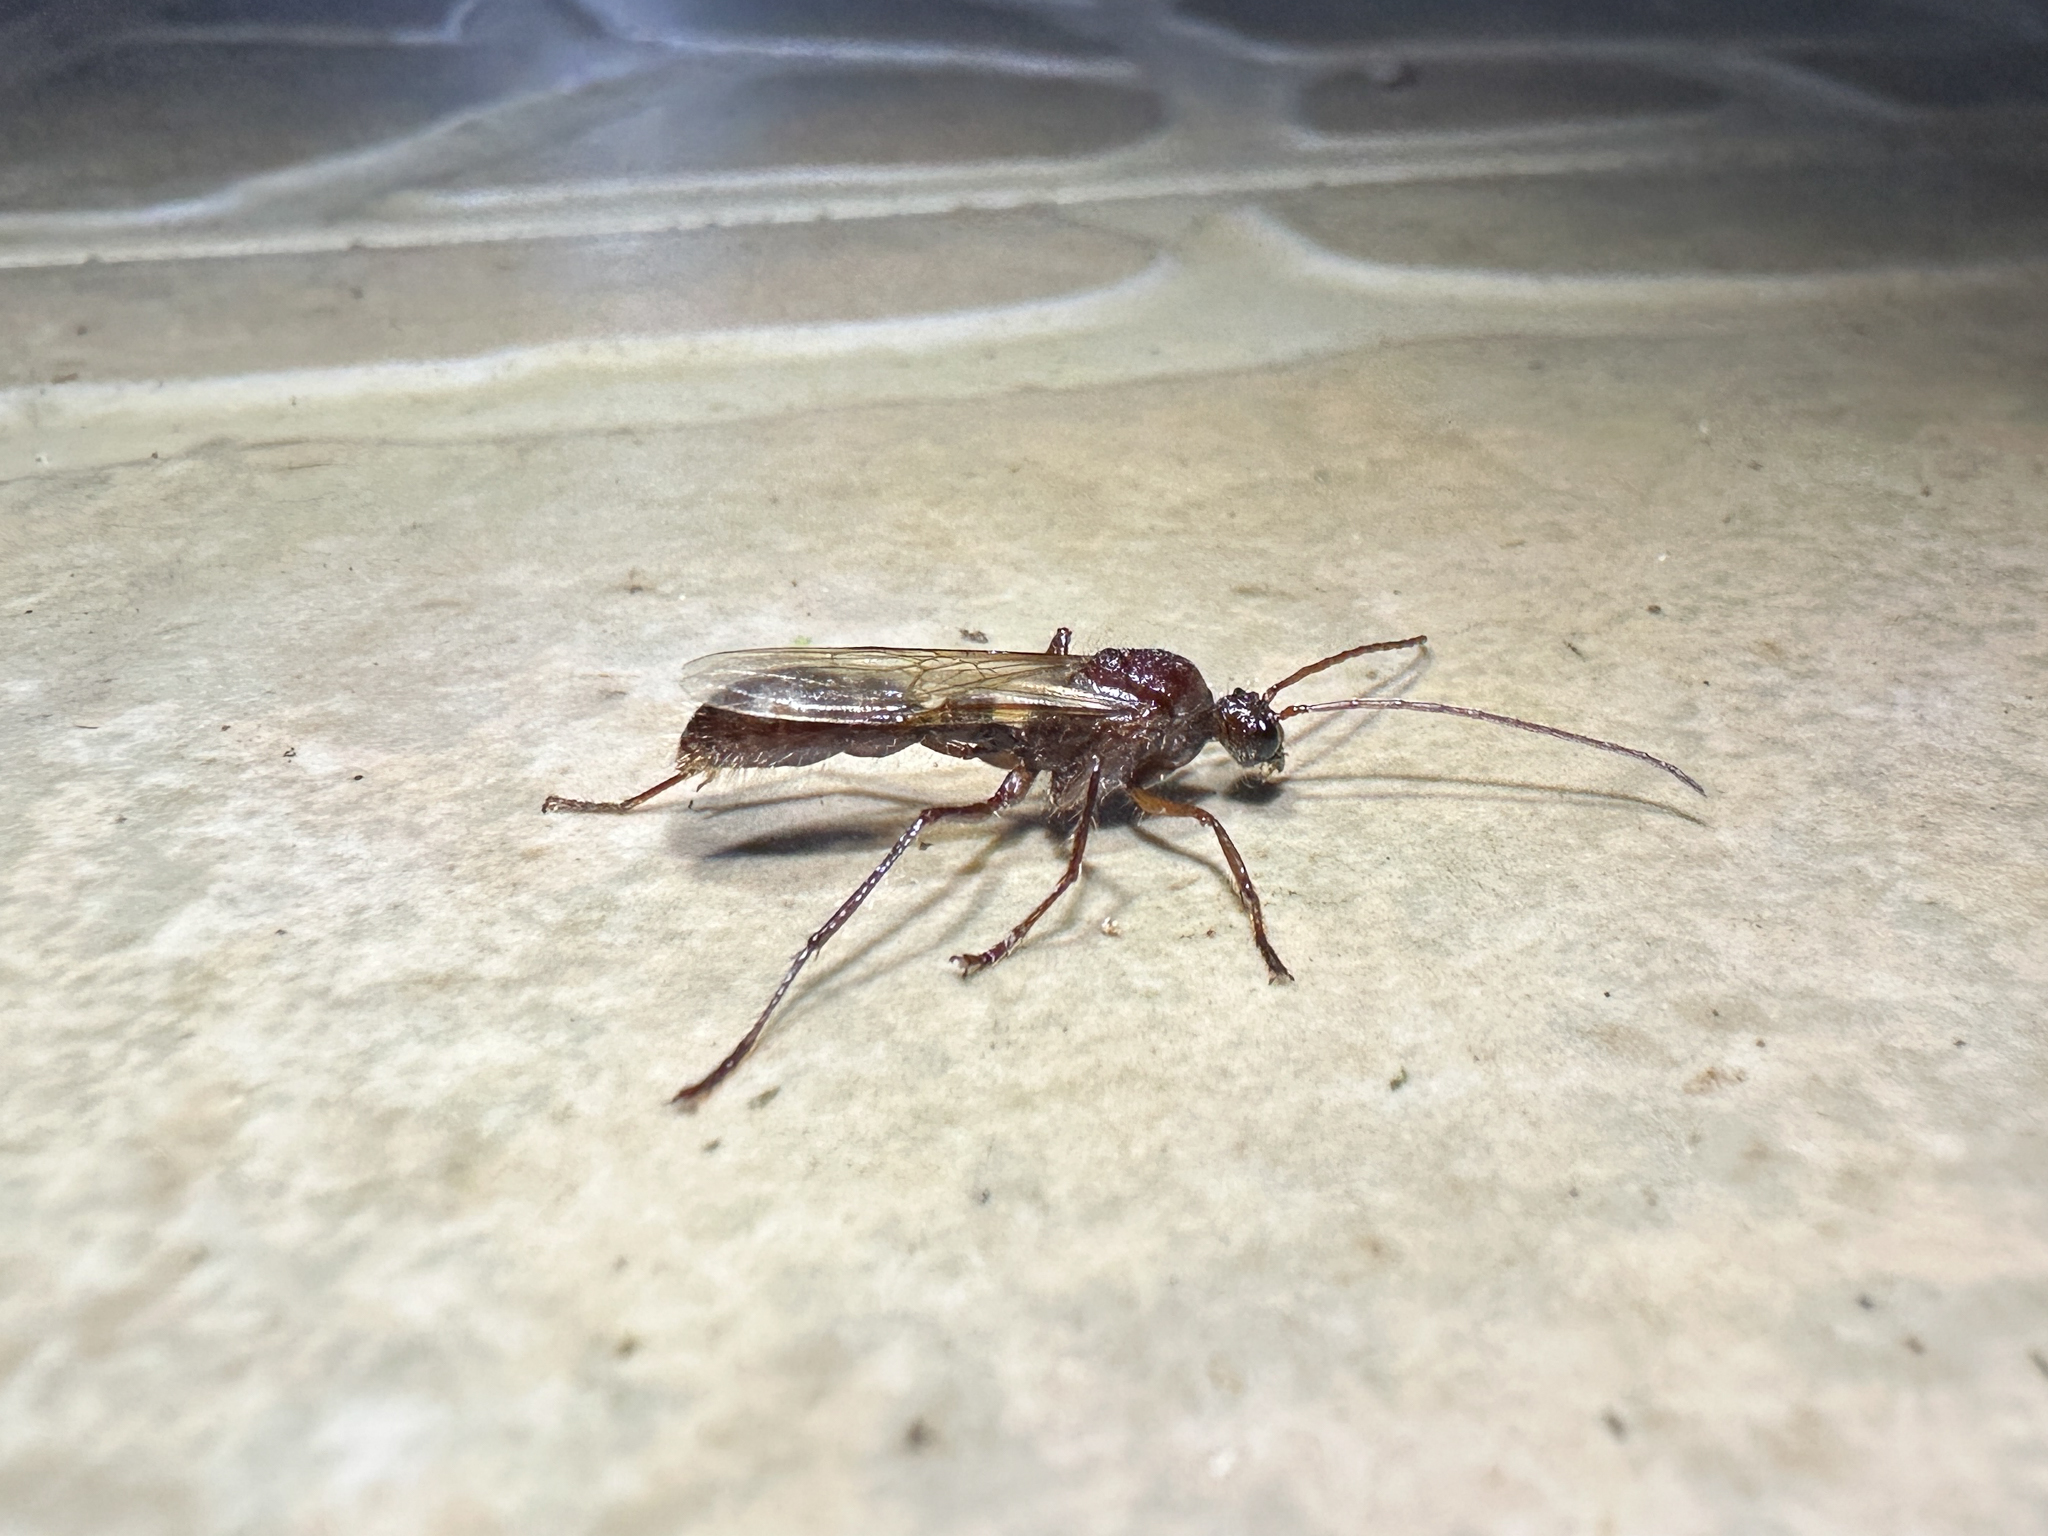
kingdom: Animalia
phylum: Arthropoda
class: Insecta
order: Hymenoptera
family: Formicidae
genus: Paraponera
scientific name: Paraponera clavata
